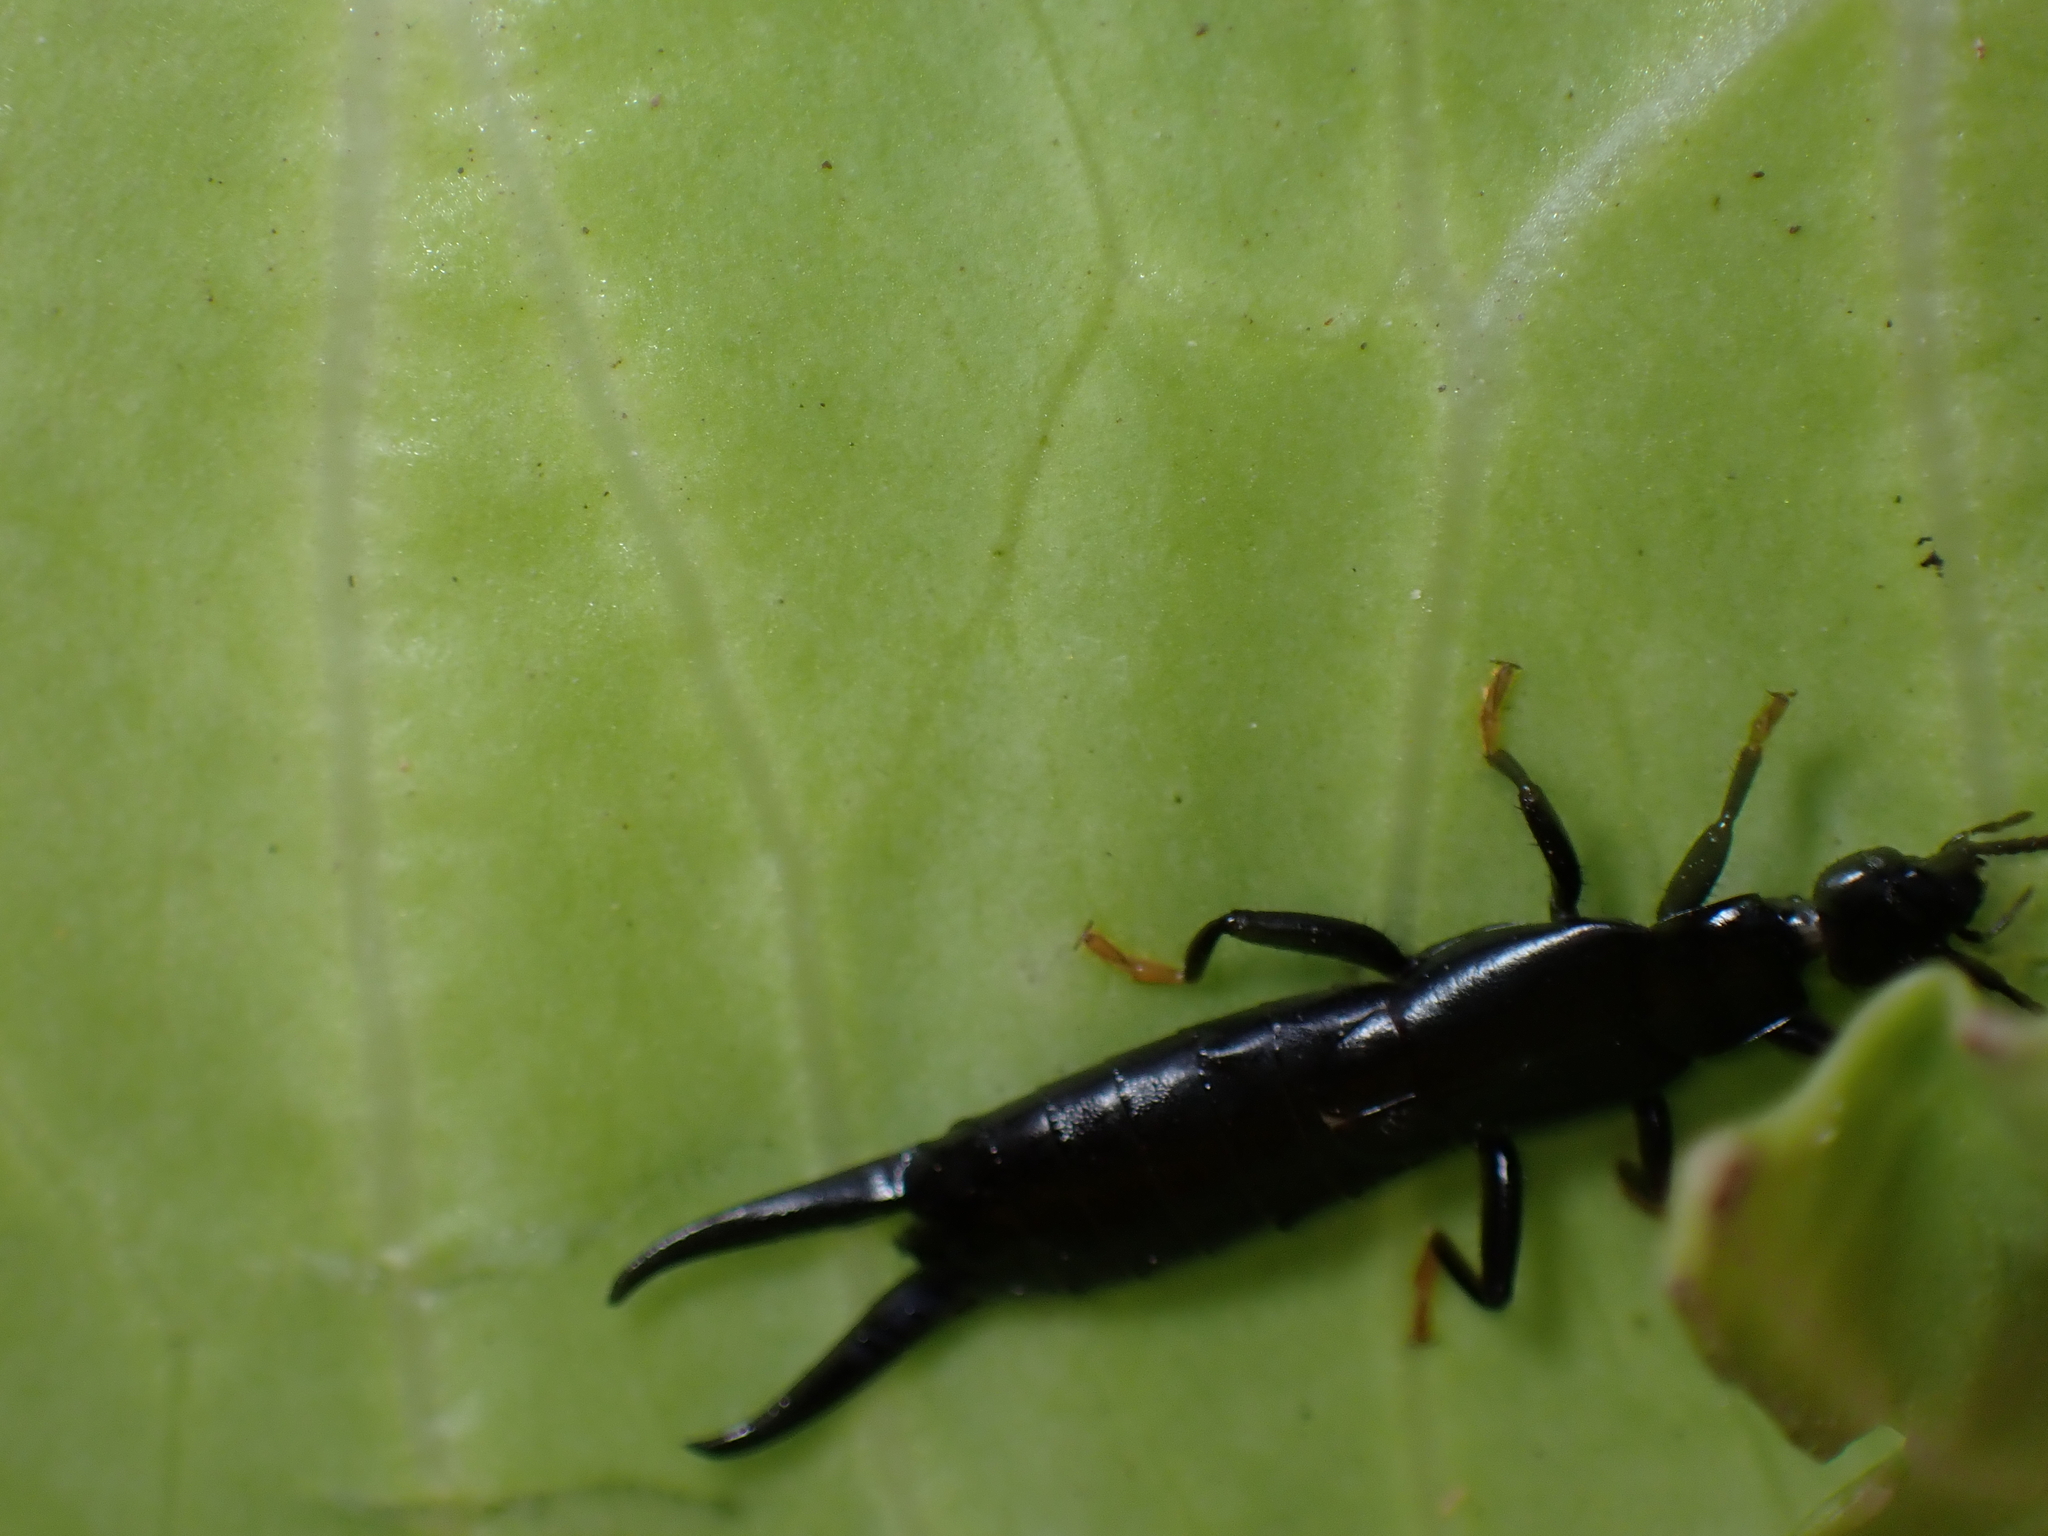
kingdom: Animalia
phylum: Arthropoda
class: Insecta
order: Dermaptera
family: Chelisochidae
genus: Chelisoches
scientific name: Chelisoches morio
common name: Black earwig
